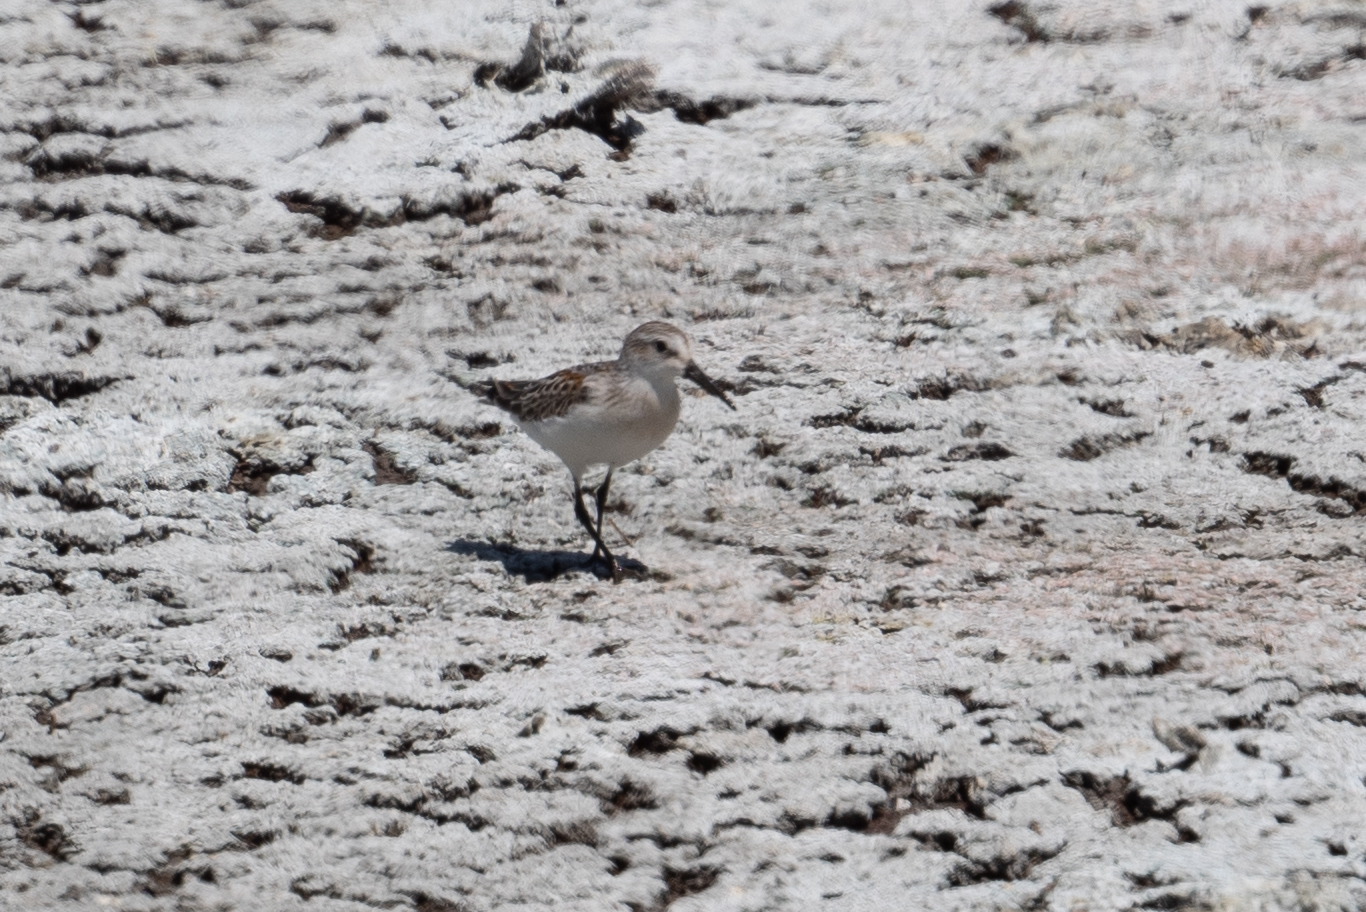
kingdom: Animalia
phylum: Chordata
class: Aves
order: Charadriiformes
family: Scolopacidae
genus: Calidris
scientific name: Calidris mauri
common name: Western sandpiper
